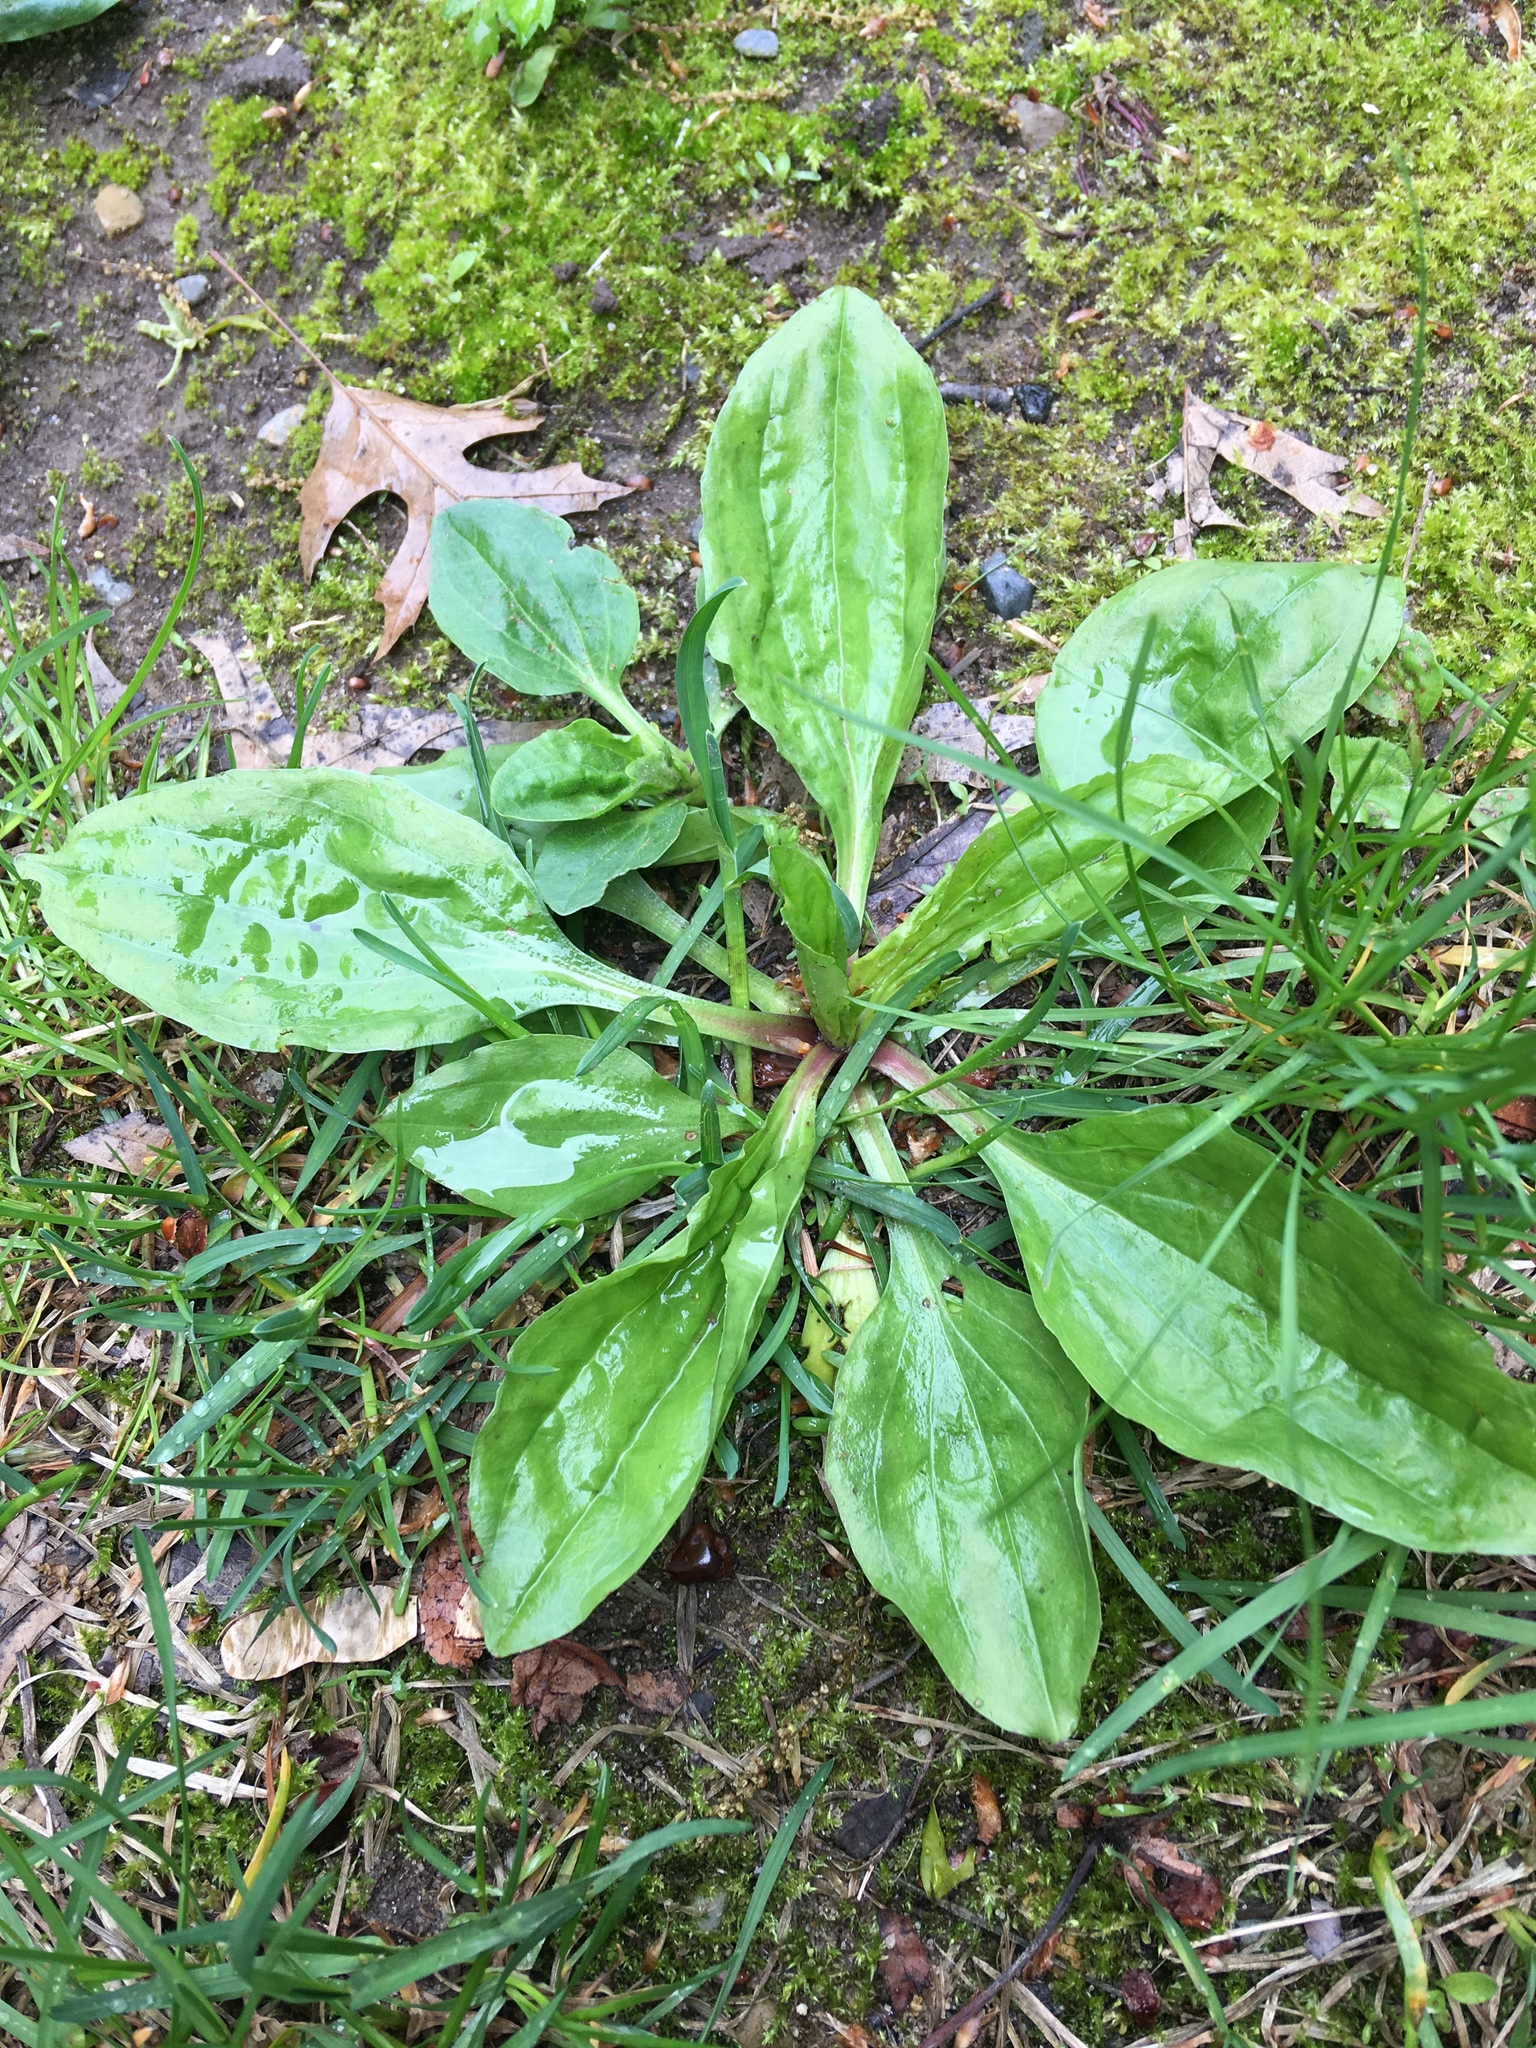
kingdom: Plantae
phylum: Tracheophyta
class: Magnoliopsida
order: Lamiales
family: Plantaginaceae
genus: Plantago
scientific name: Plantago rugelii
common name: American plantain
